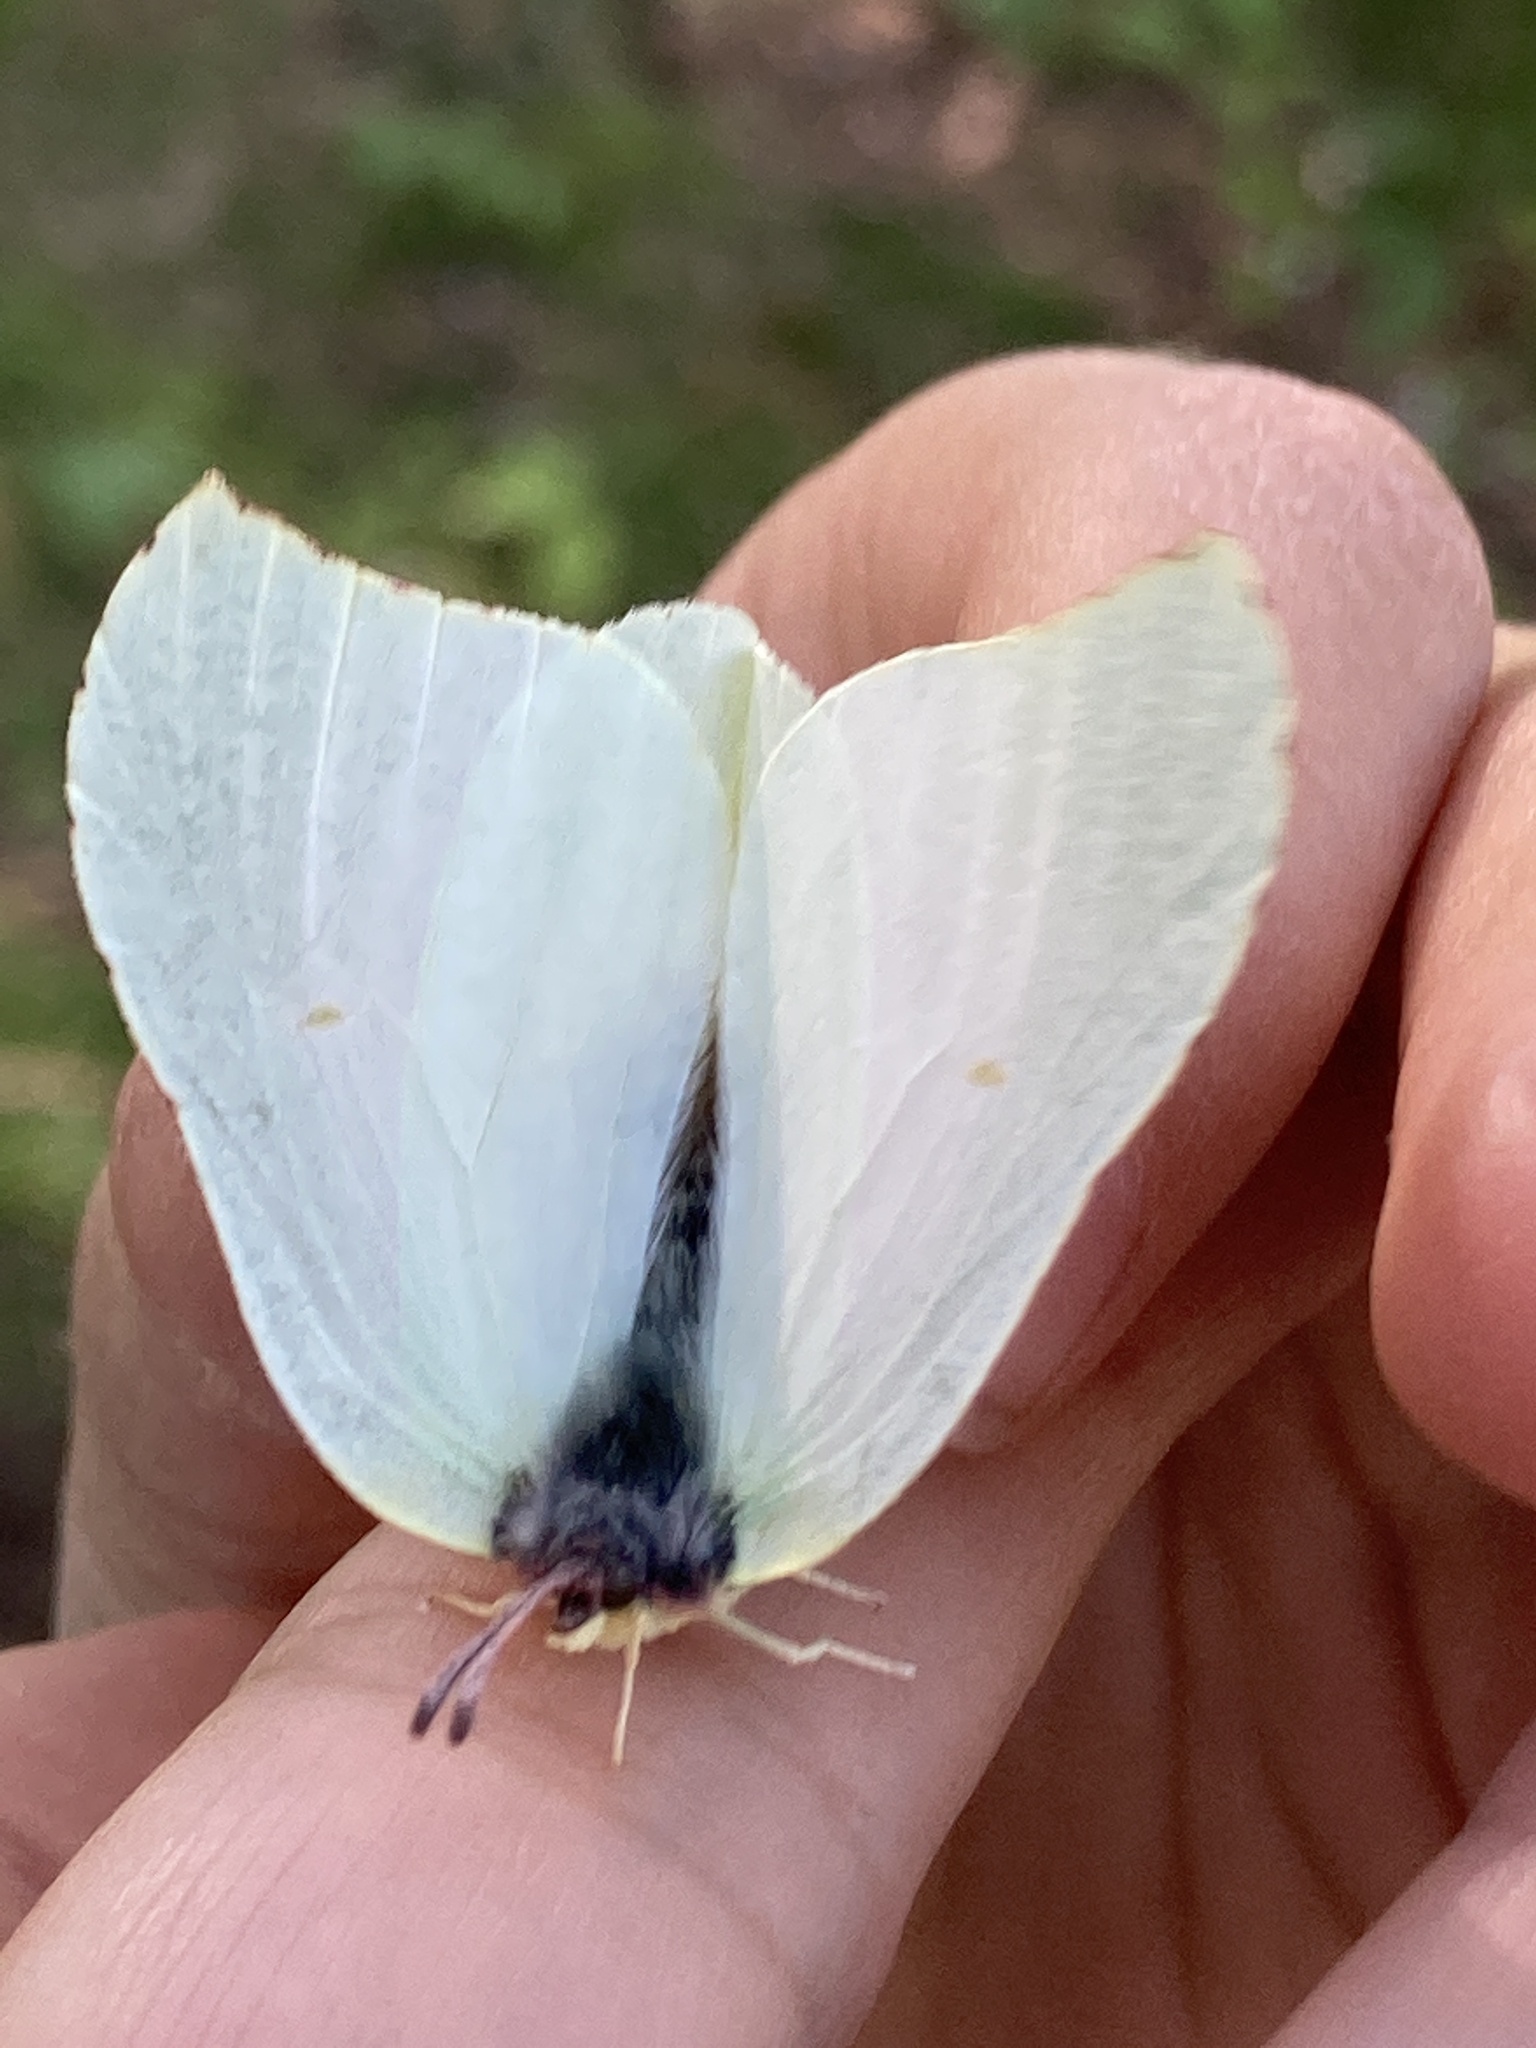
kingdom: Animalia
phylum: Arthropoda
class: Insecta
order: Lepidoptera
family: Pieridae
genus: Gonepteryx
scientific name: Gonepteryx rhamni
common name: Brimstone
